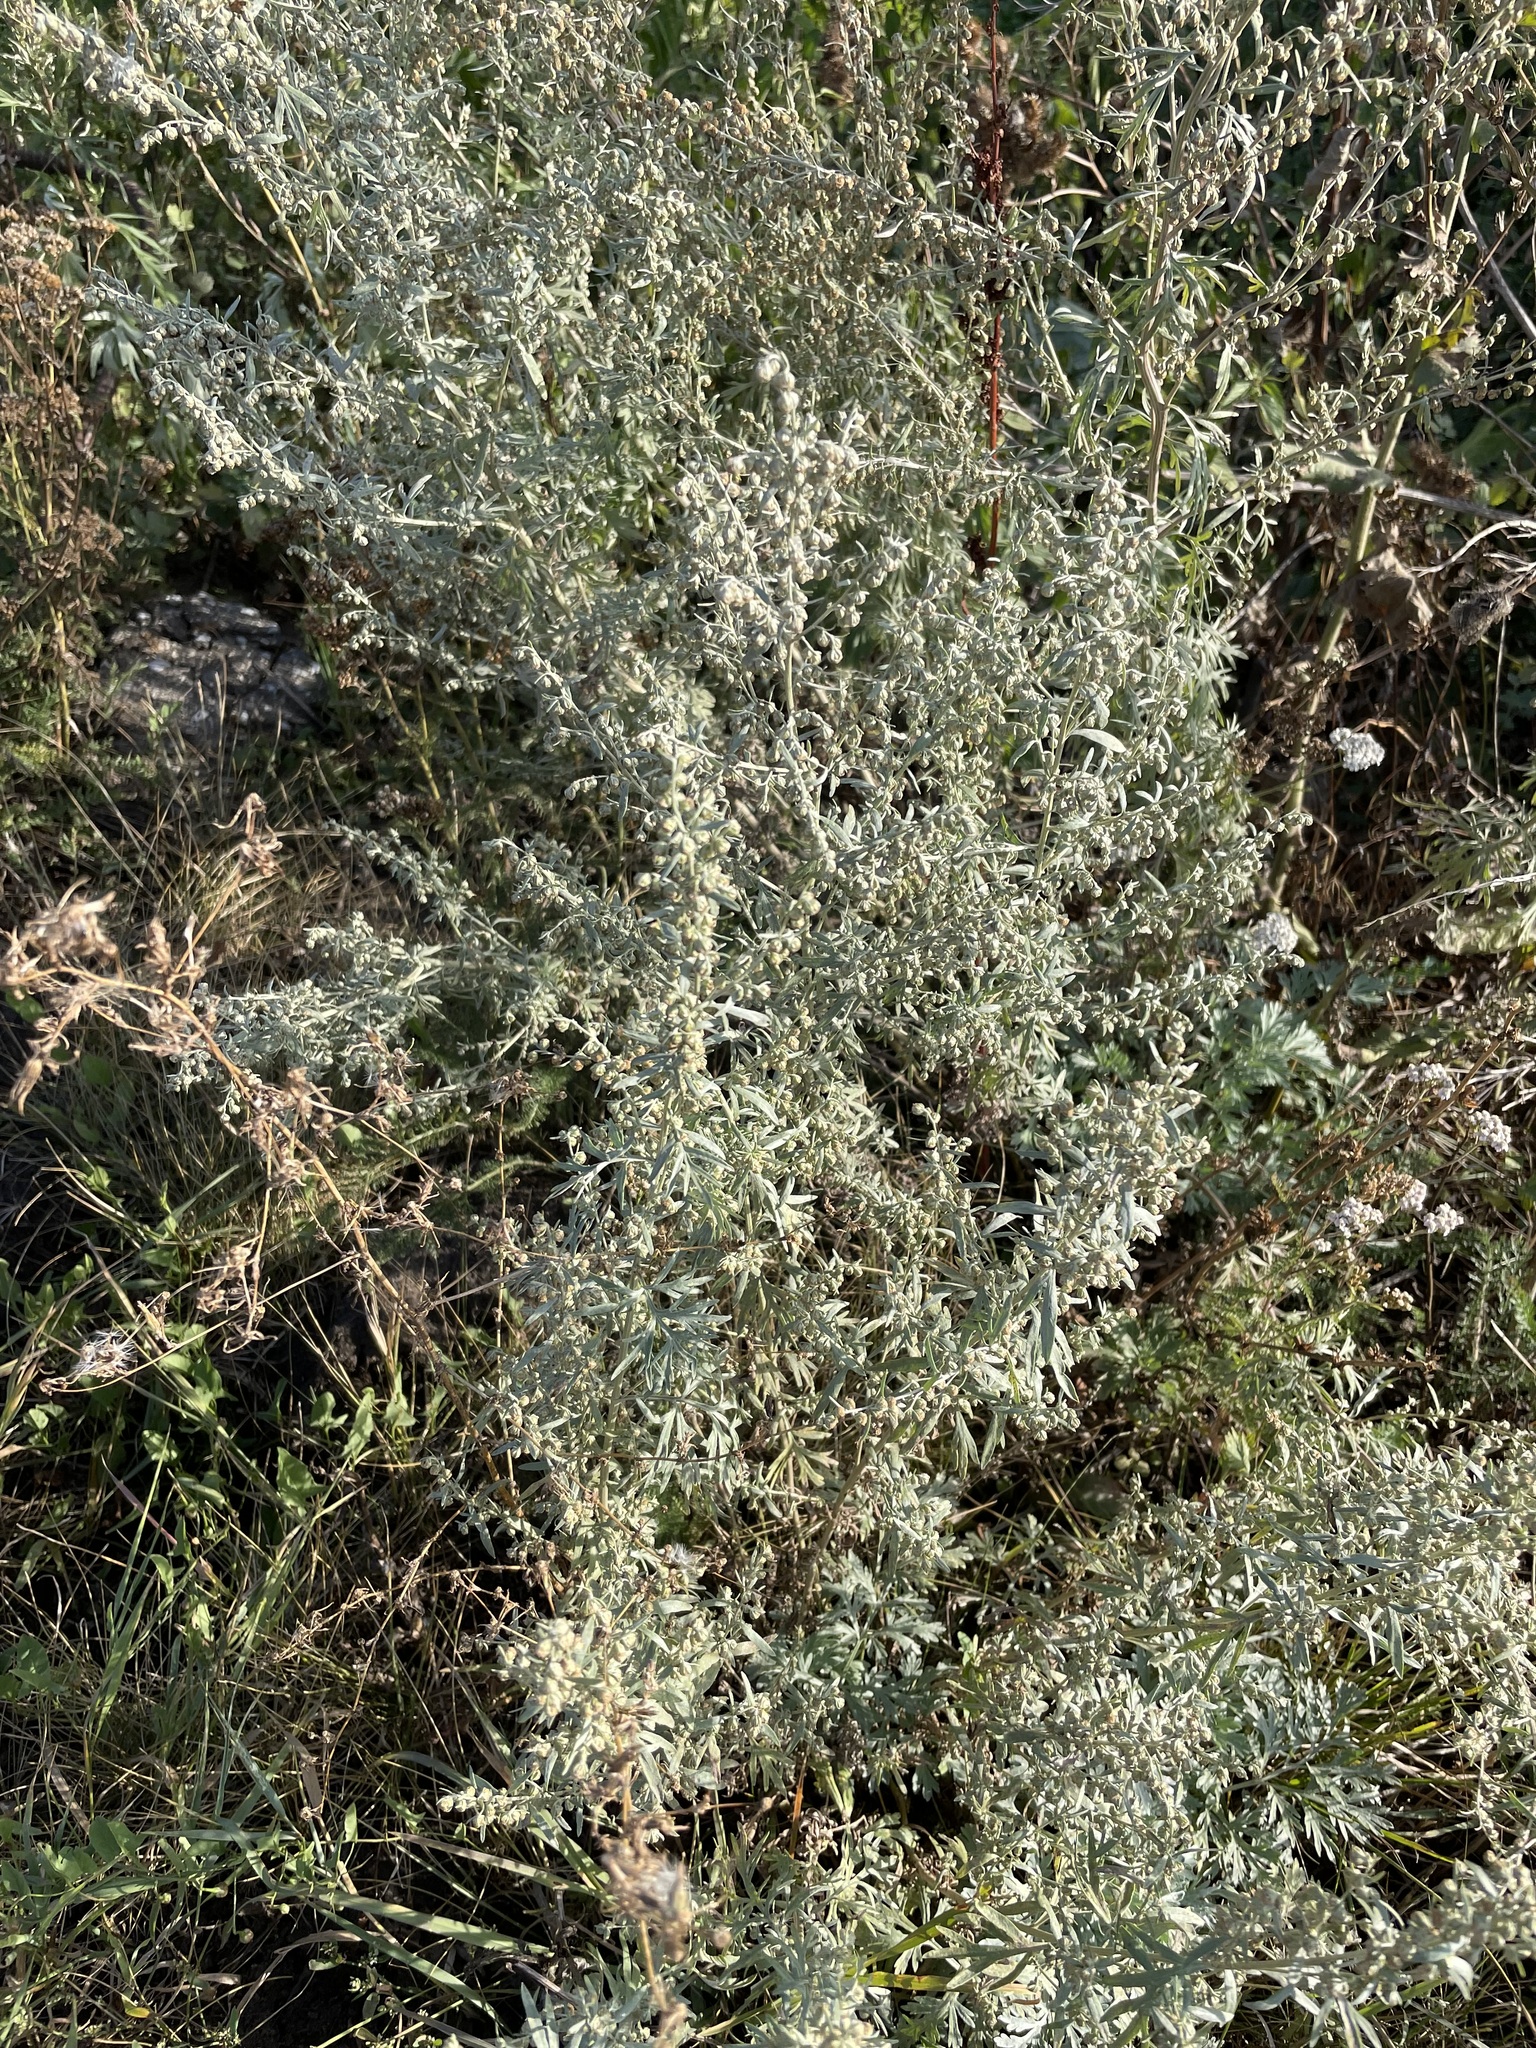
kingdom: Plantae
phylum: Tracheophyta
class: Magnoliopsida
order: Asterales
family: Asteraceae
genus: Artemisia
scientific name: Artemisia absinthium
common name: Wormwood
